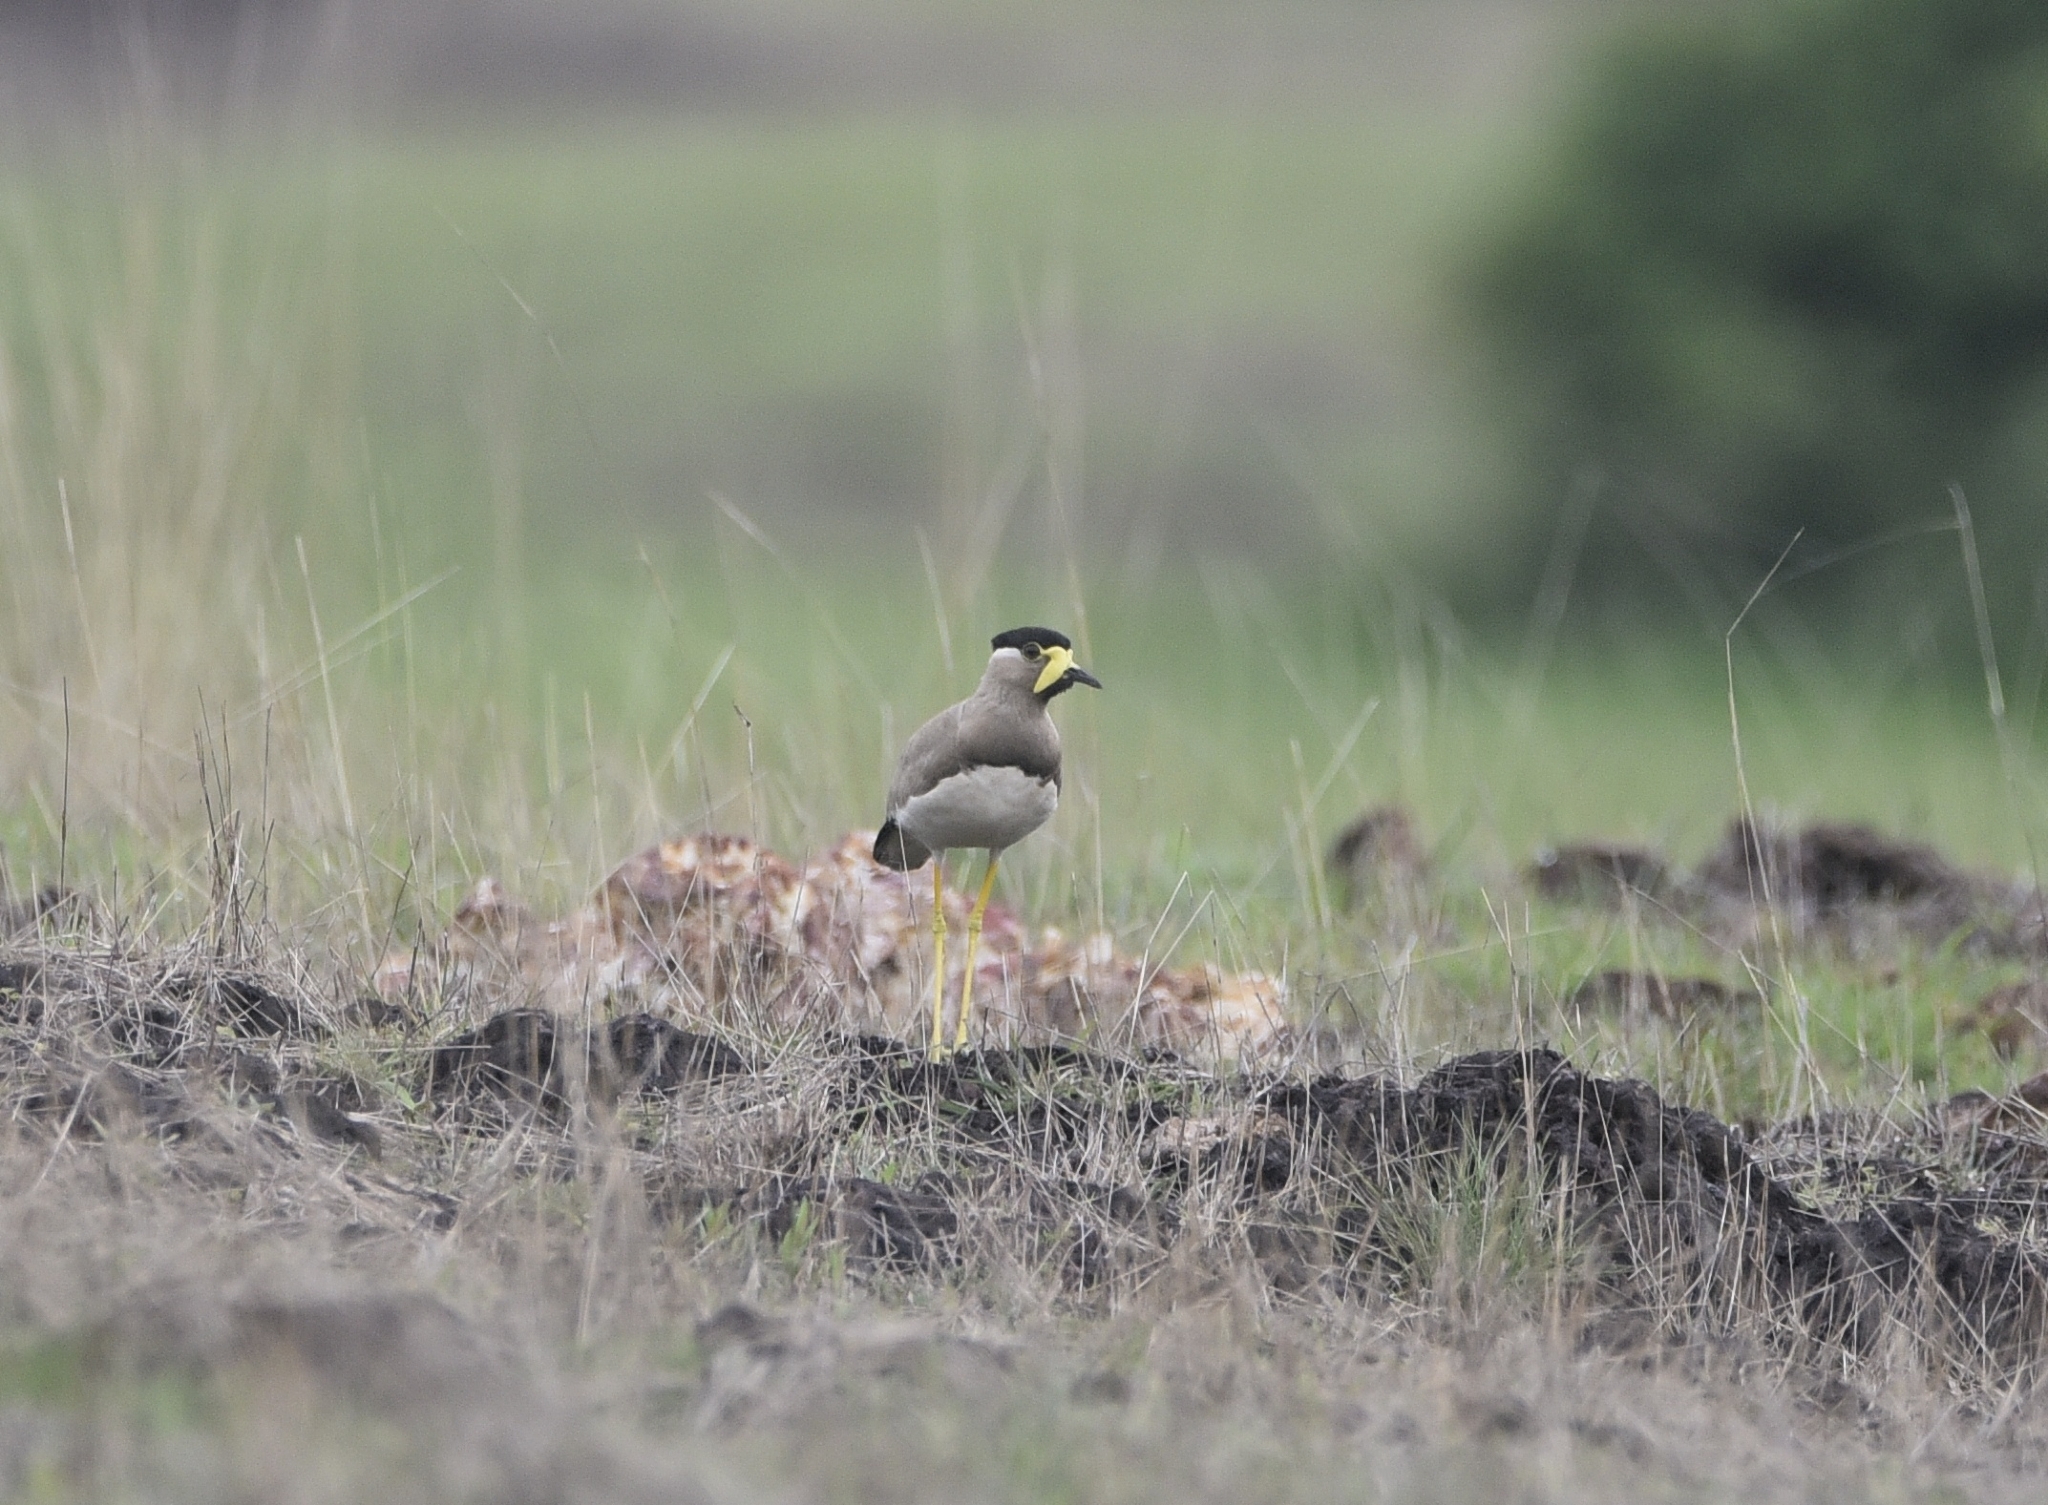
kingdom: Animalia
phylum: Chordata
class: Aves
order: Charadriiformes
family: Charadriidae
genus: Vanellus
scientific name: Vanellus malabaricus
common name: Yellow-wattled lapwing
